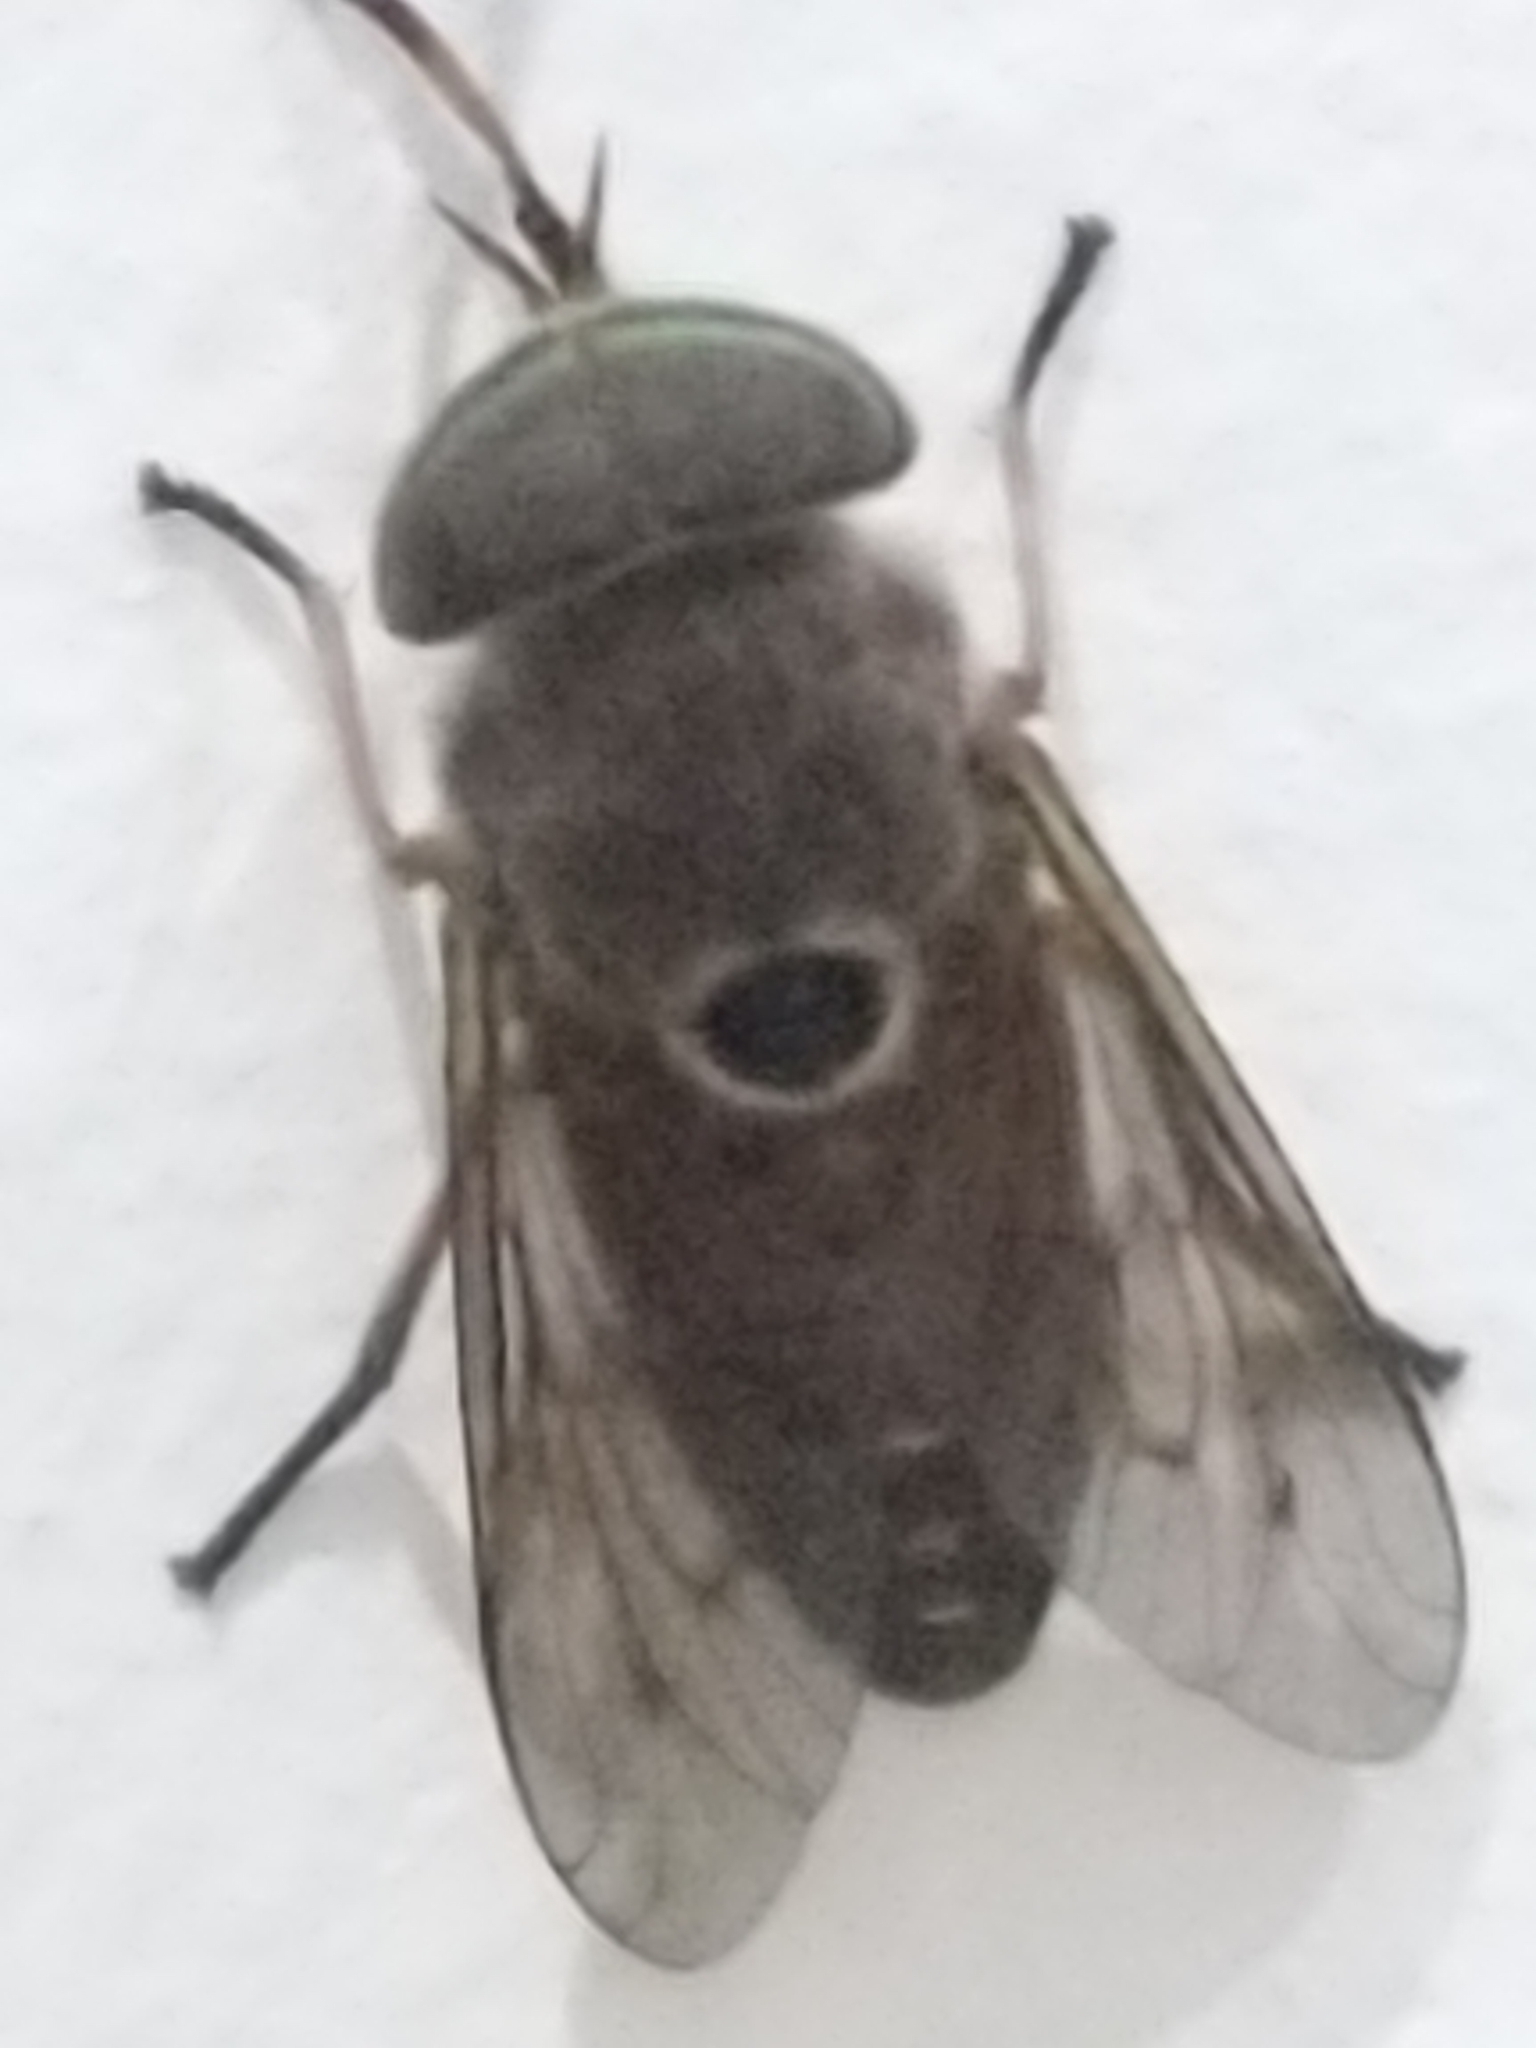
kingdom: Animalia
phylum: Arthropoda
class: Insecta
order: Diptera
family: Tabanidae
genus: Tabanus
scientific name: Tabanus albocirculus
